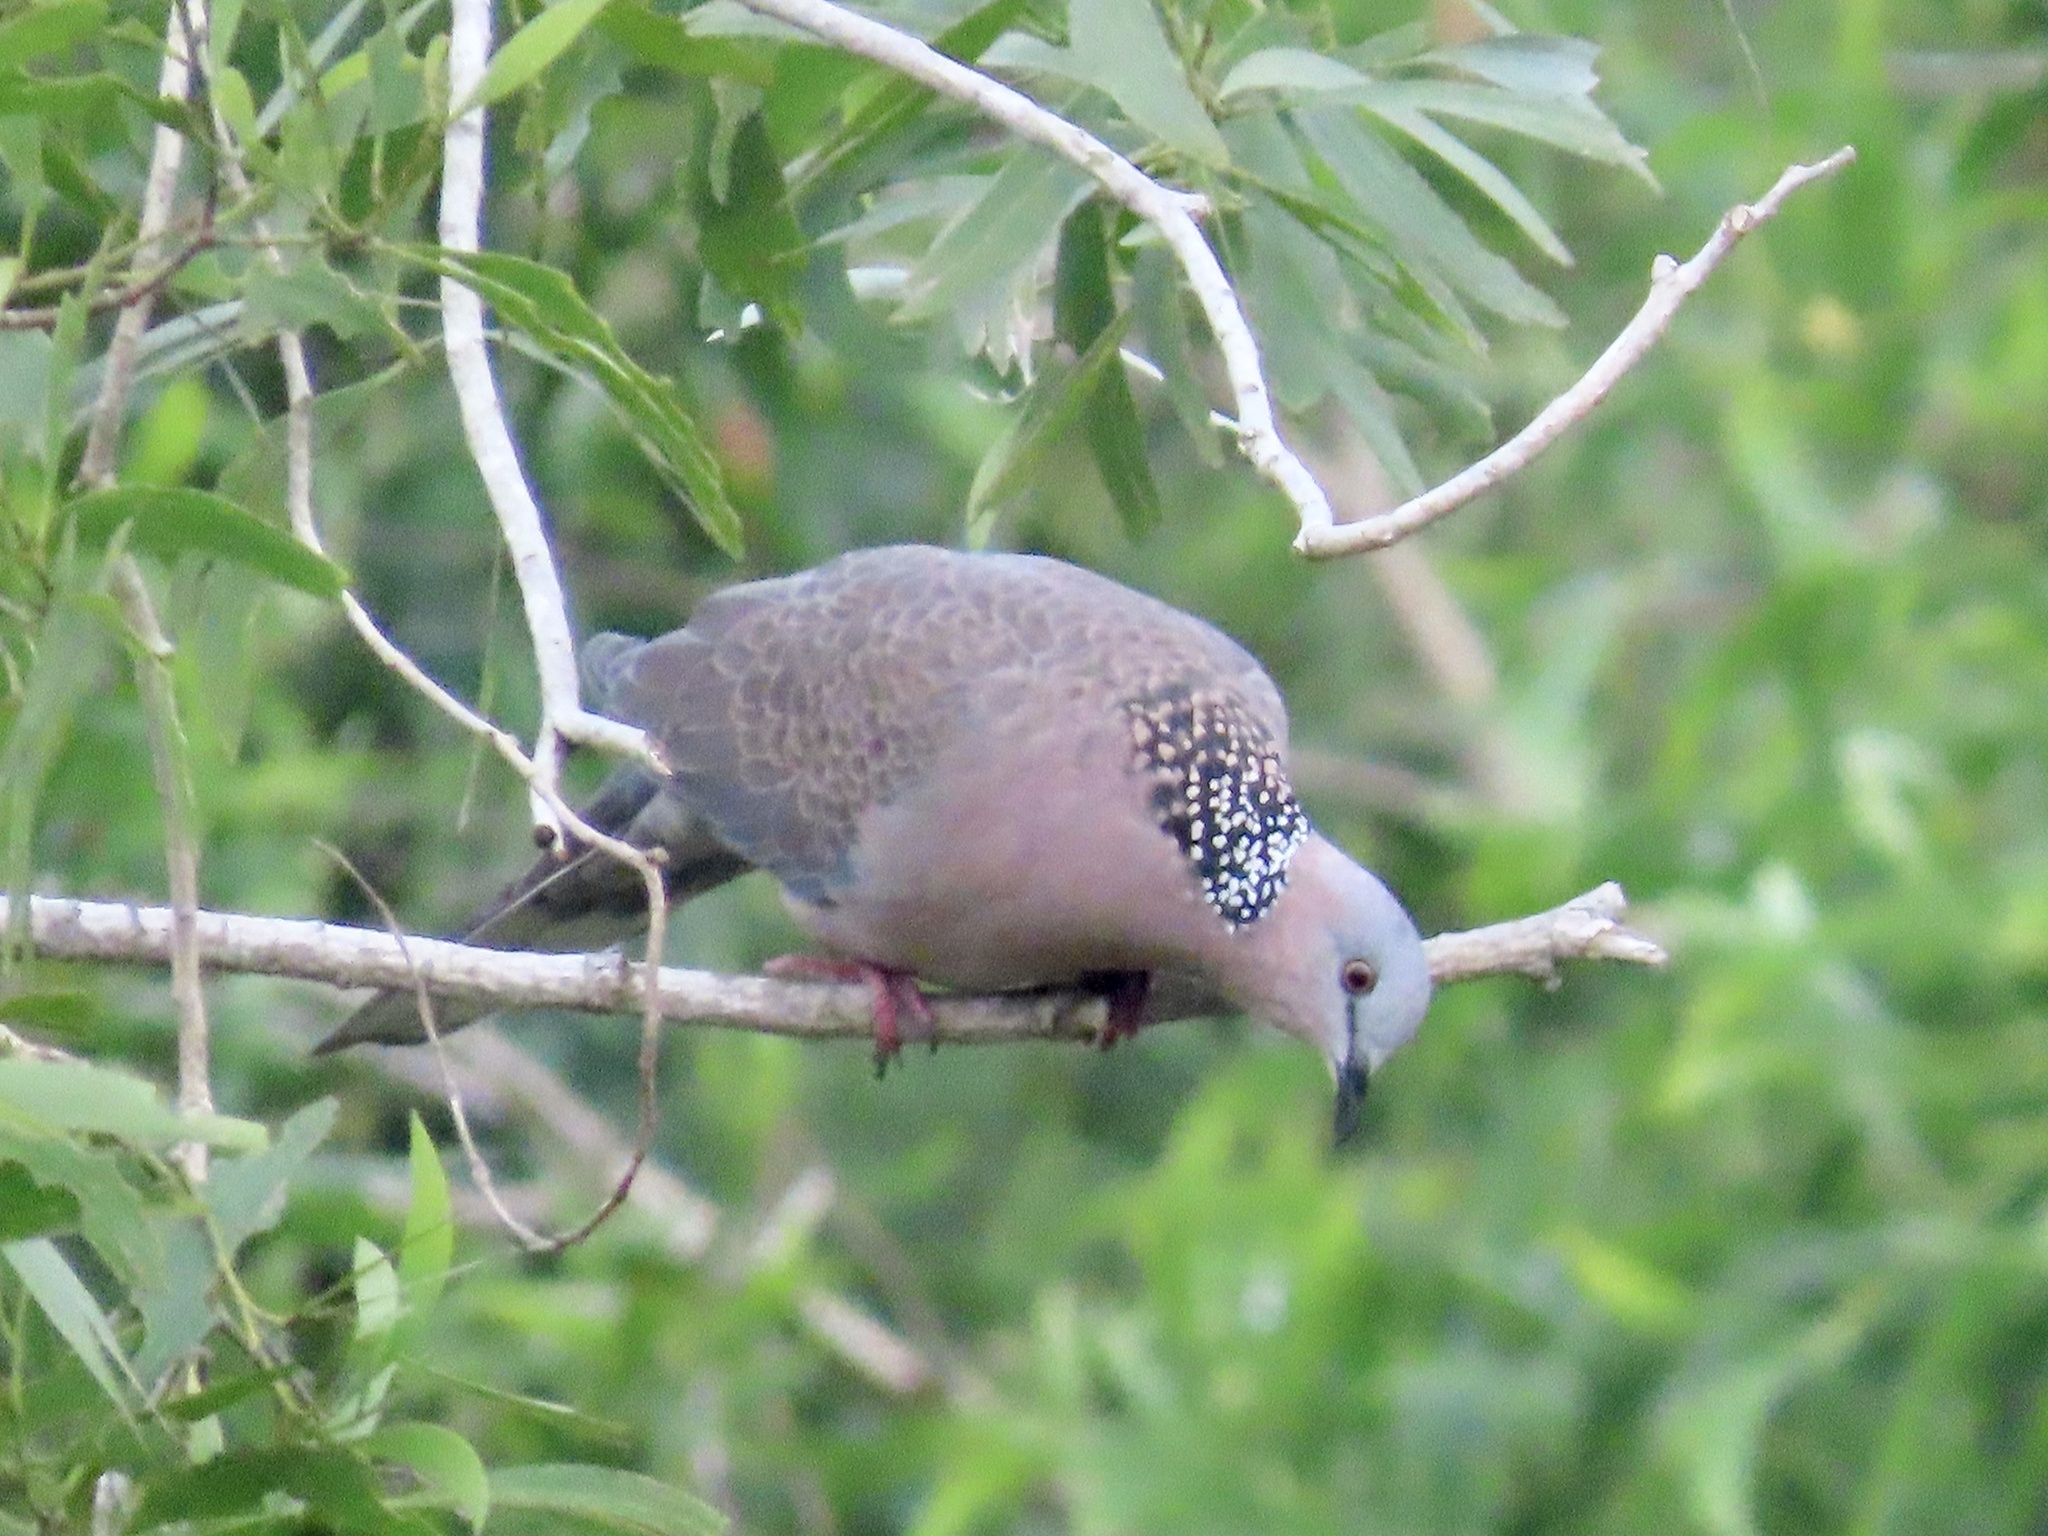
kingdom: Animalia
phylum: Chordata
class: Aves
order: Columbiformes
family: Columbidae
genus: Spilopelia
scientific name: Spilopelia chinensis
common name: Spotted dove
